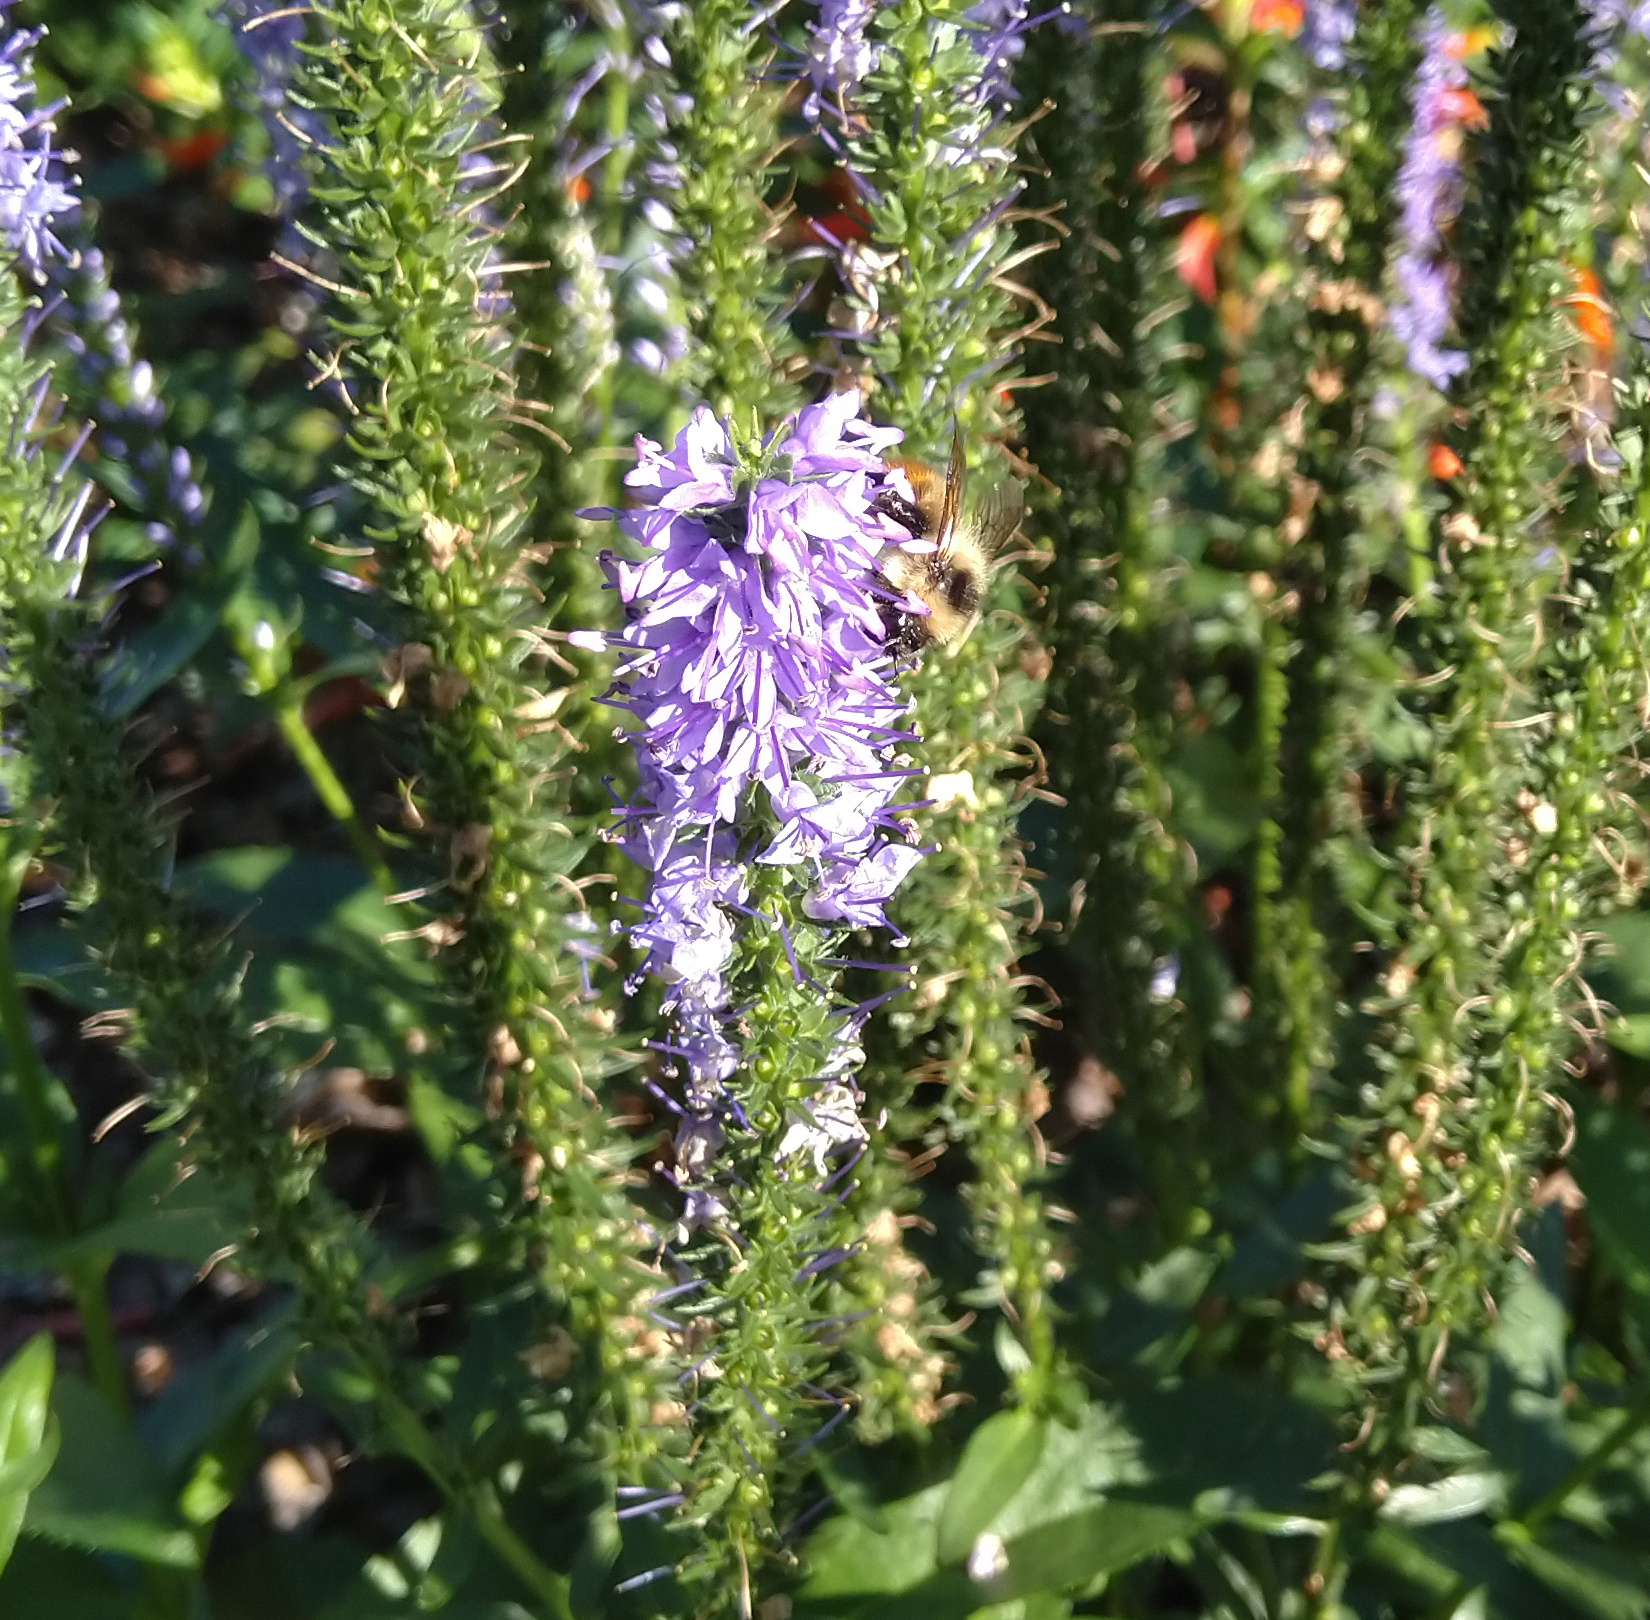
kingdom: Animalia
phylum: Arthropoda
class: Insecta
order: Hymenoptera
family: Apidae
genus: Bombus
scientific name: Bombus rufocinctus
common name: Red-belted bumble bee
